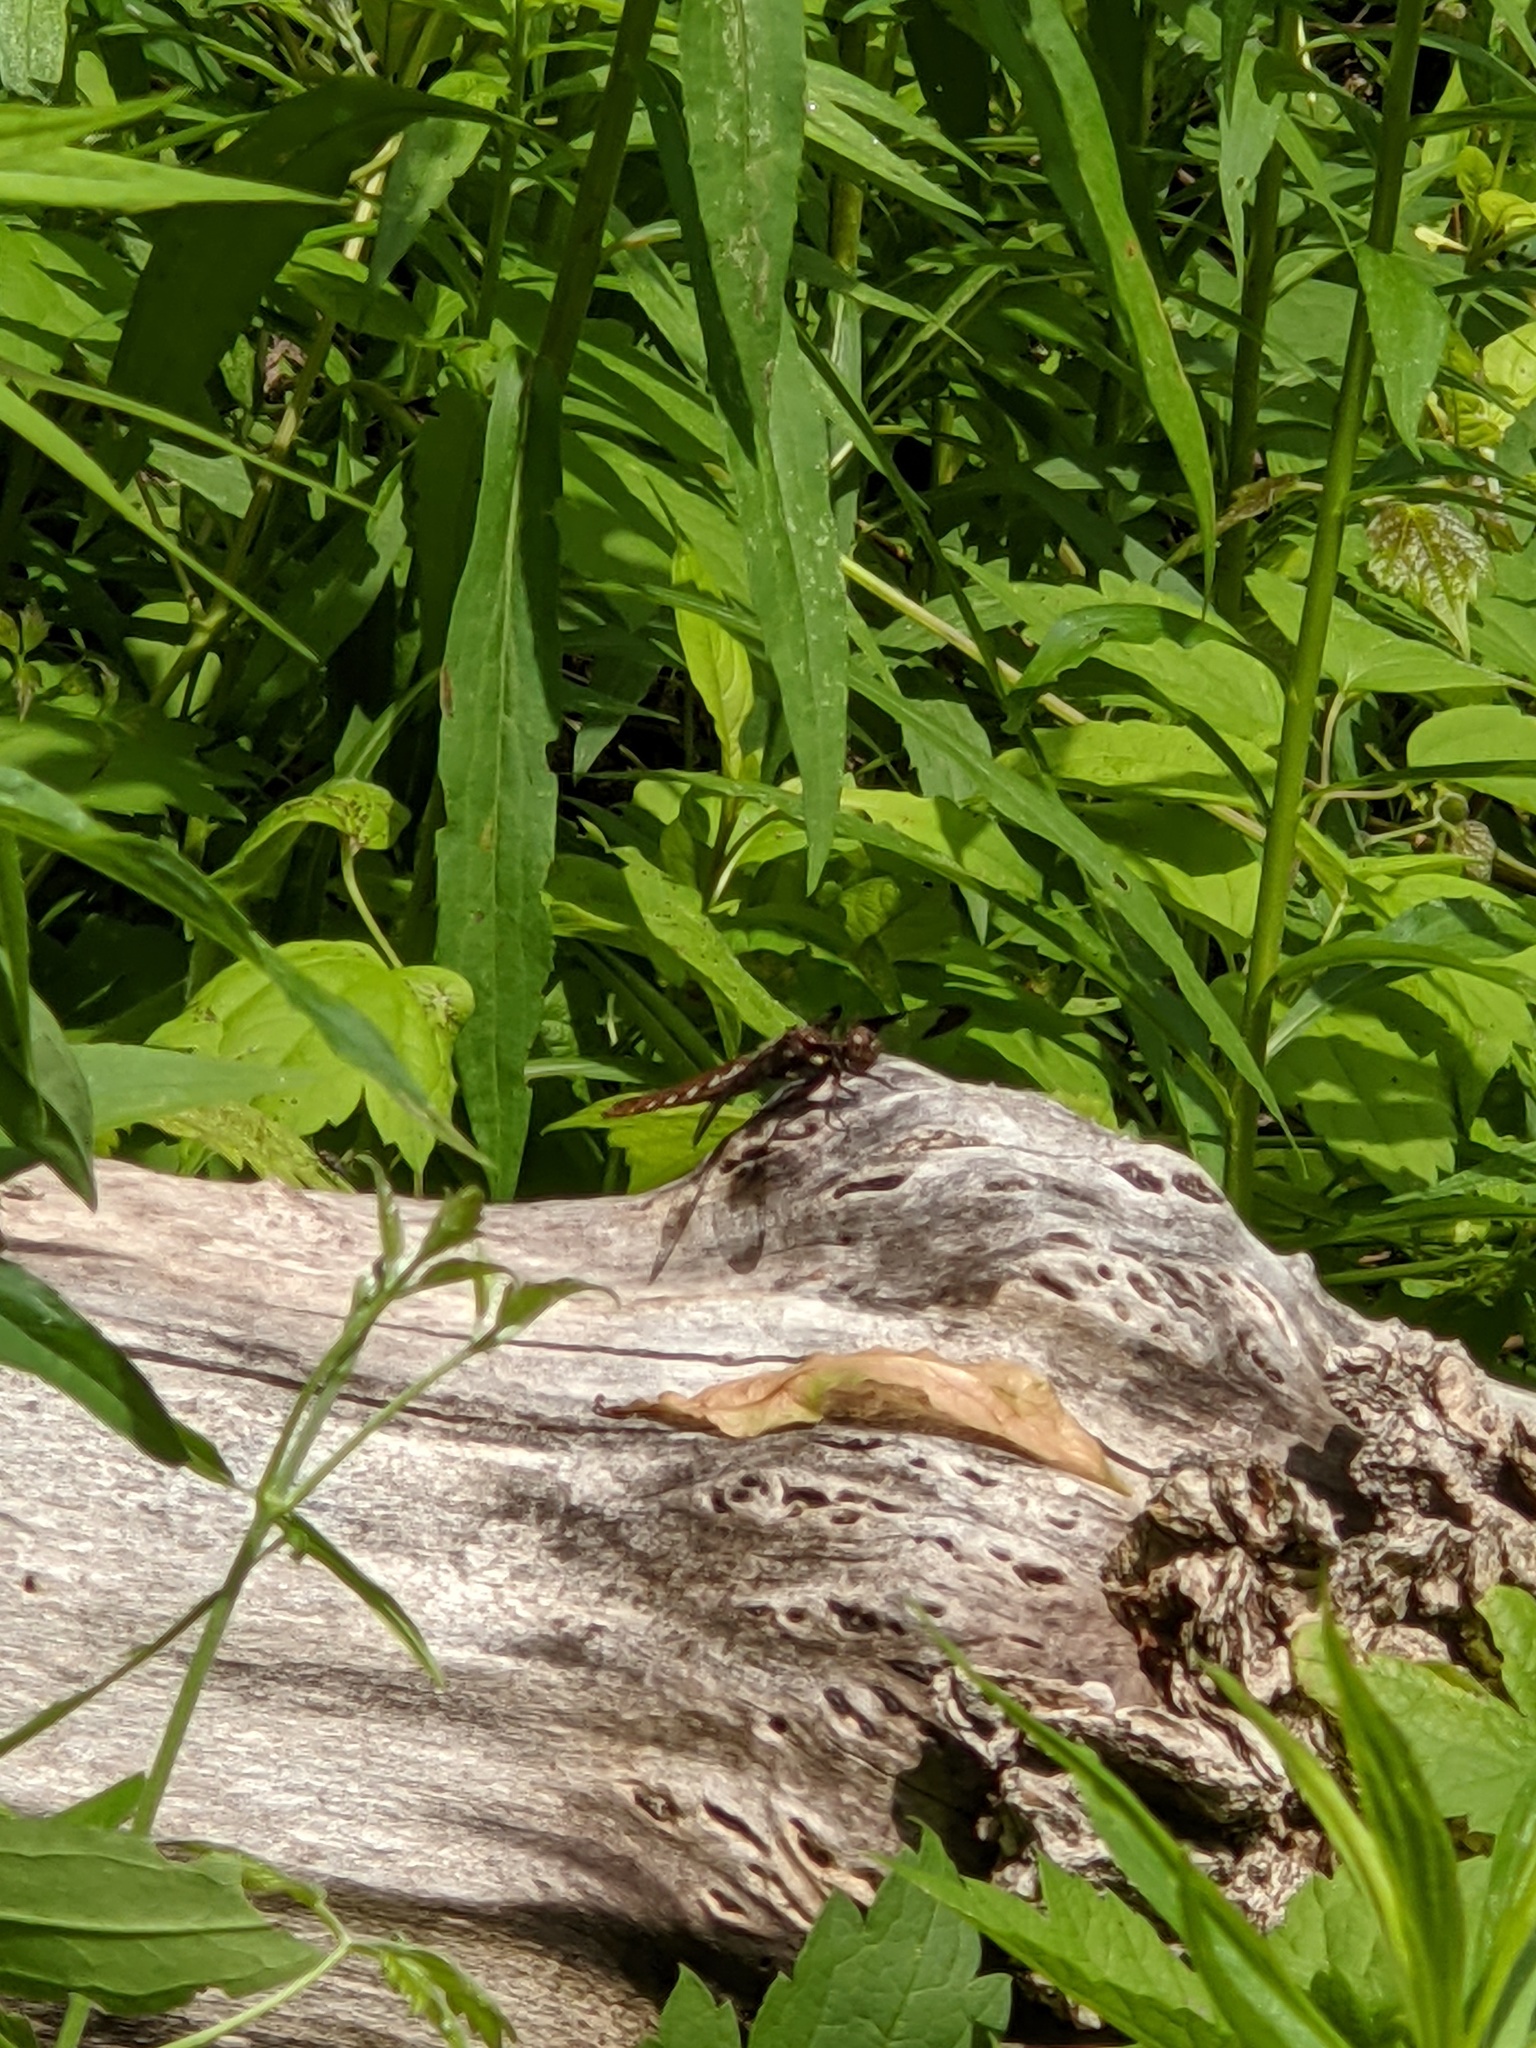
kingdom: Animalia
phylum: Arthropoda
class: Insecta
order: Odonata
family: Libellulidae
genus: Plathemis
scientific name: Plathemis lydia
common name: Common whitetail
